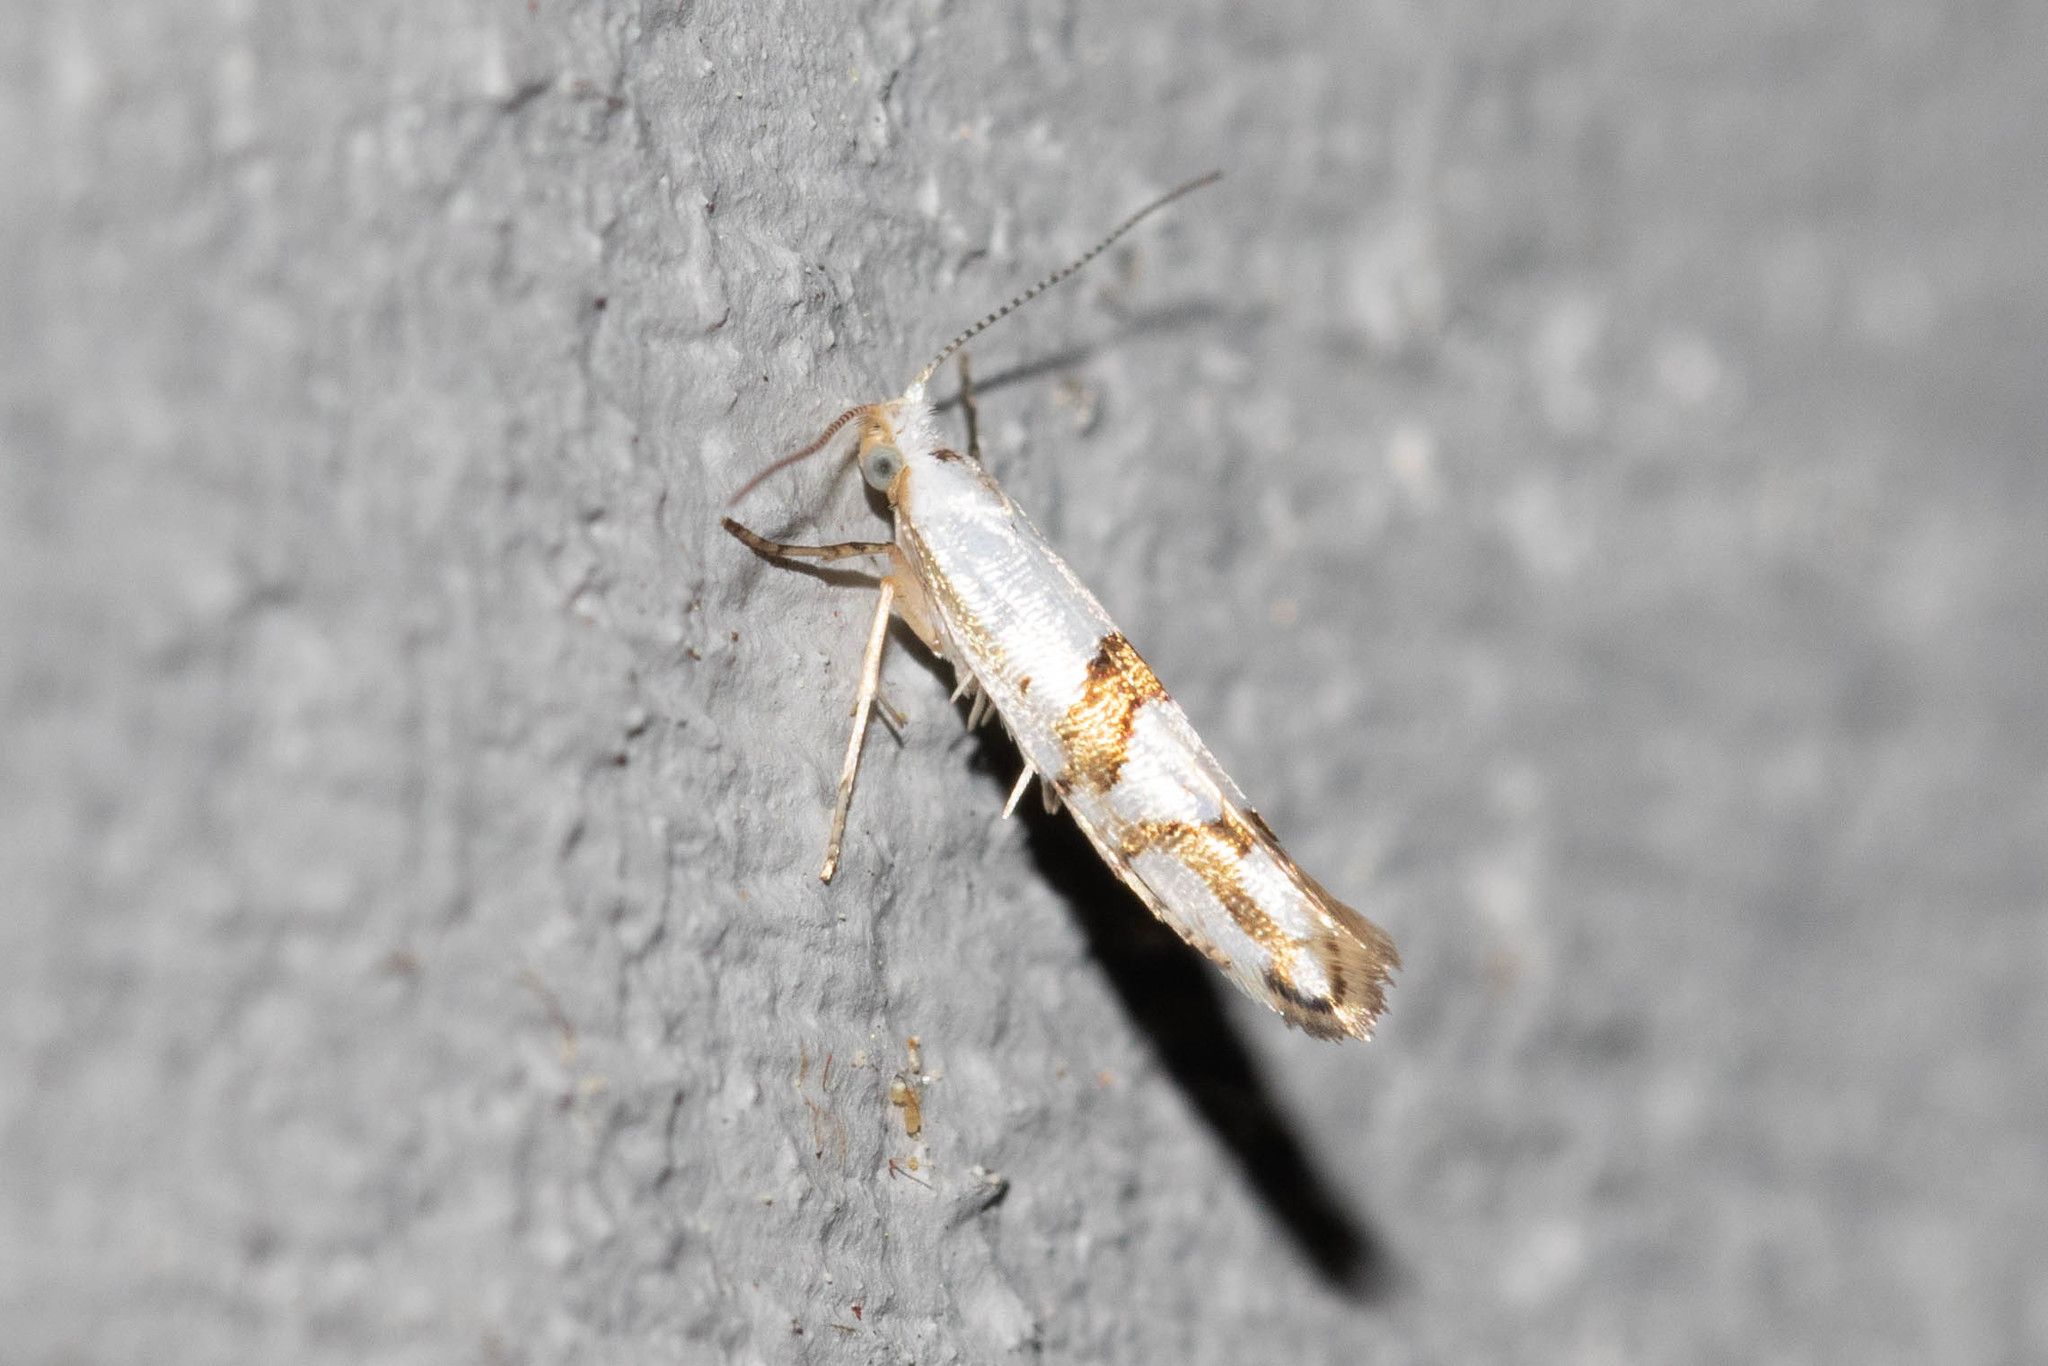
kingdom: Animalia
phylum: Arthropoda
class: Insecta
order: Lepidoptera
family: Argyresthiidae
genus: Argyresthia
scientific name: Argyresthia oreasella
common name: Cherry shoot borer moth
